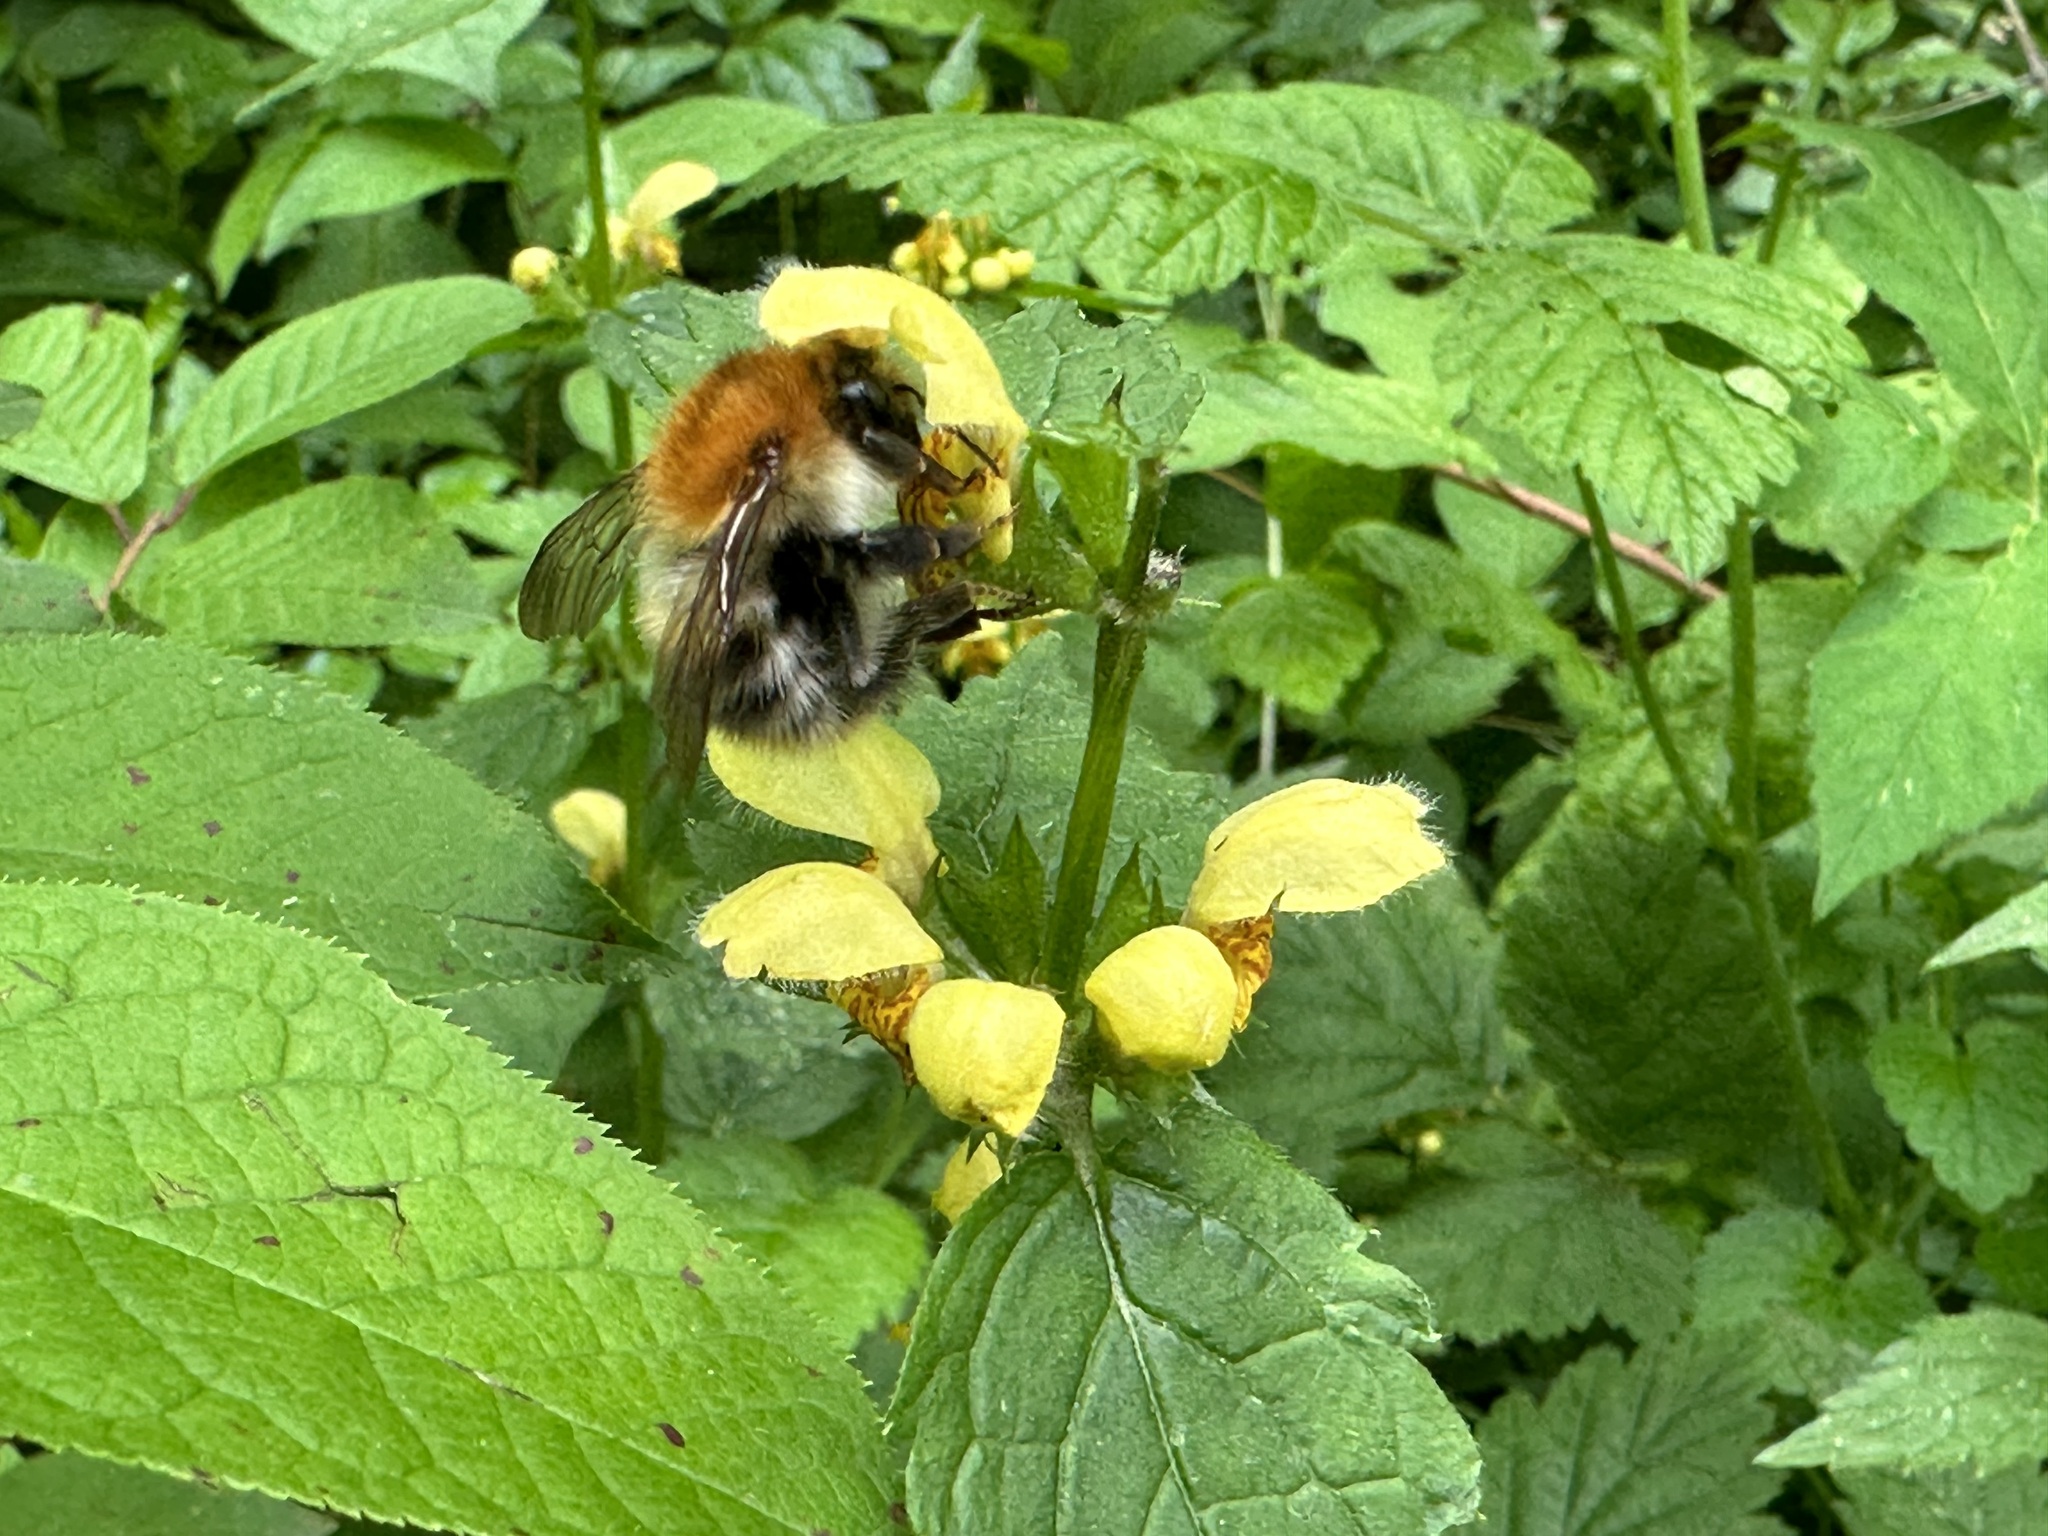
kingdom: Animalia
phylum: Arthropoda
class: Insecta
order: Hymenoptera
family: Apidae
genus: Bombus
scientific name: Bombus pascuorum
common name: Common carder bee
